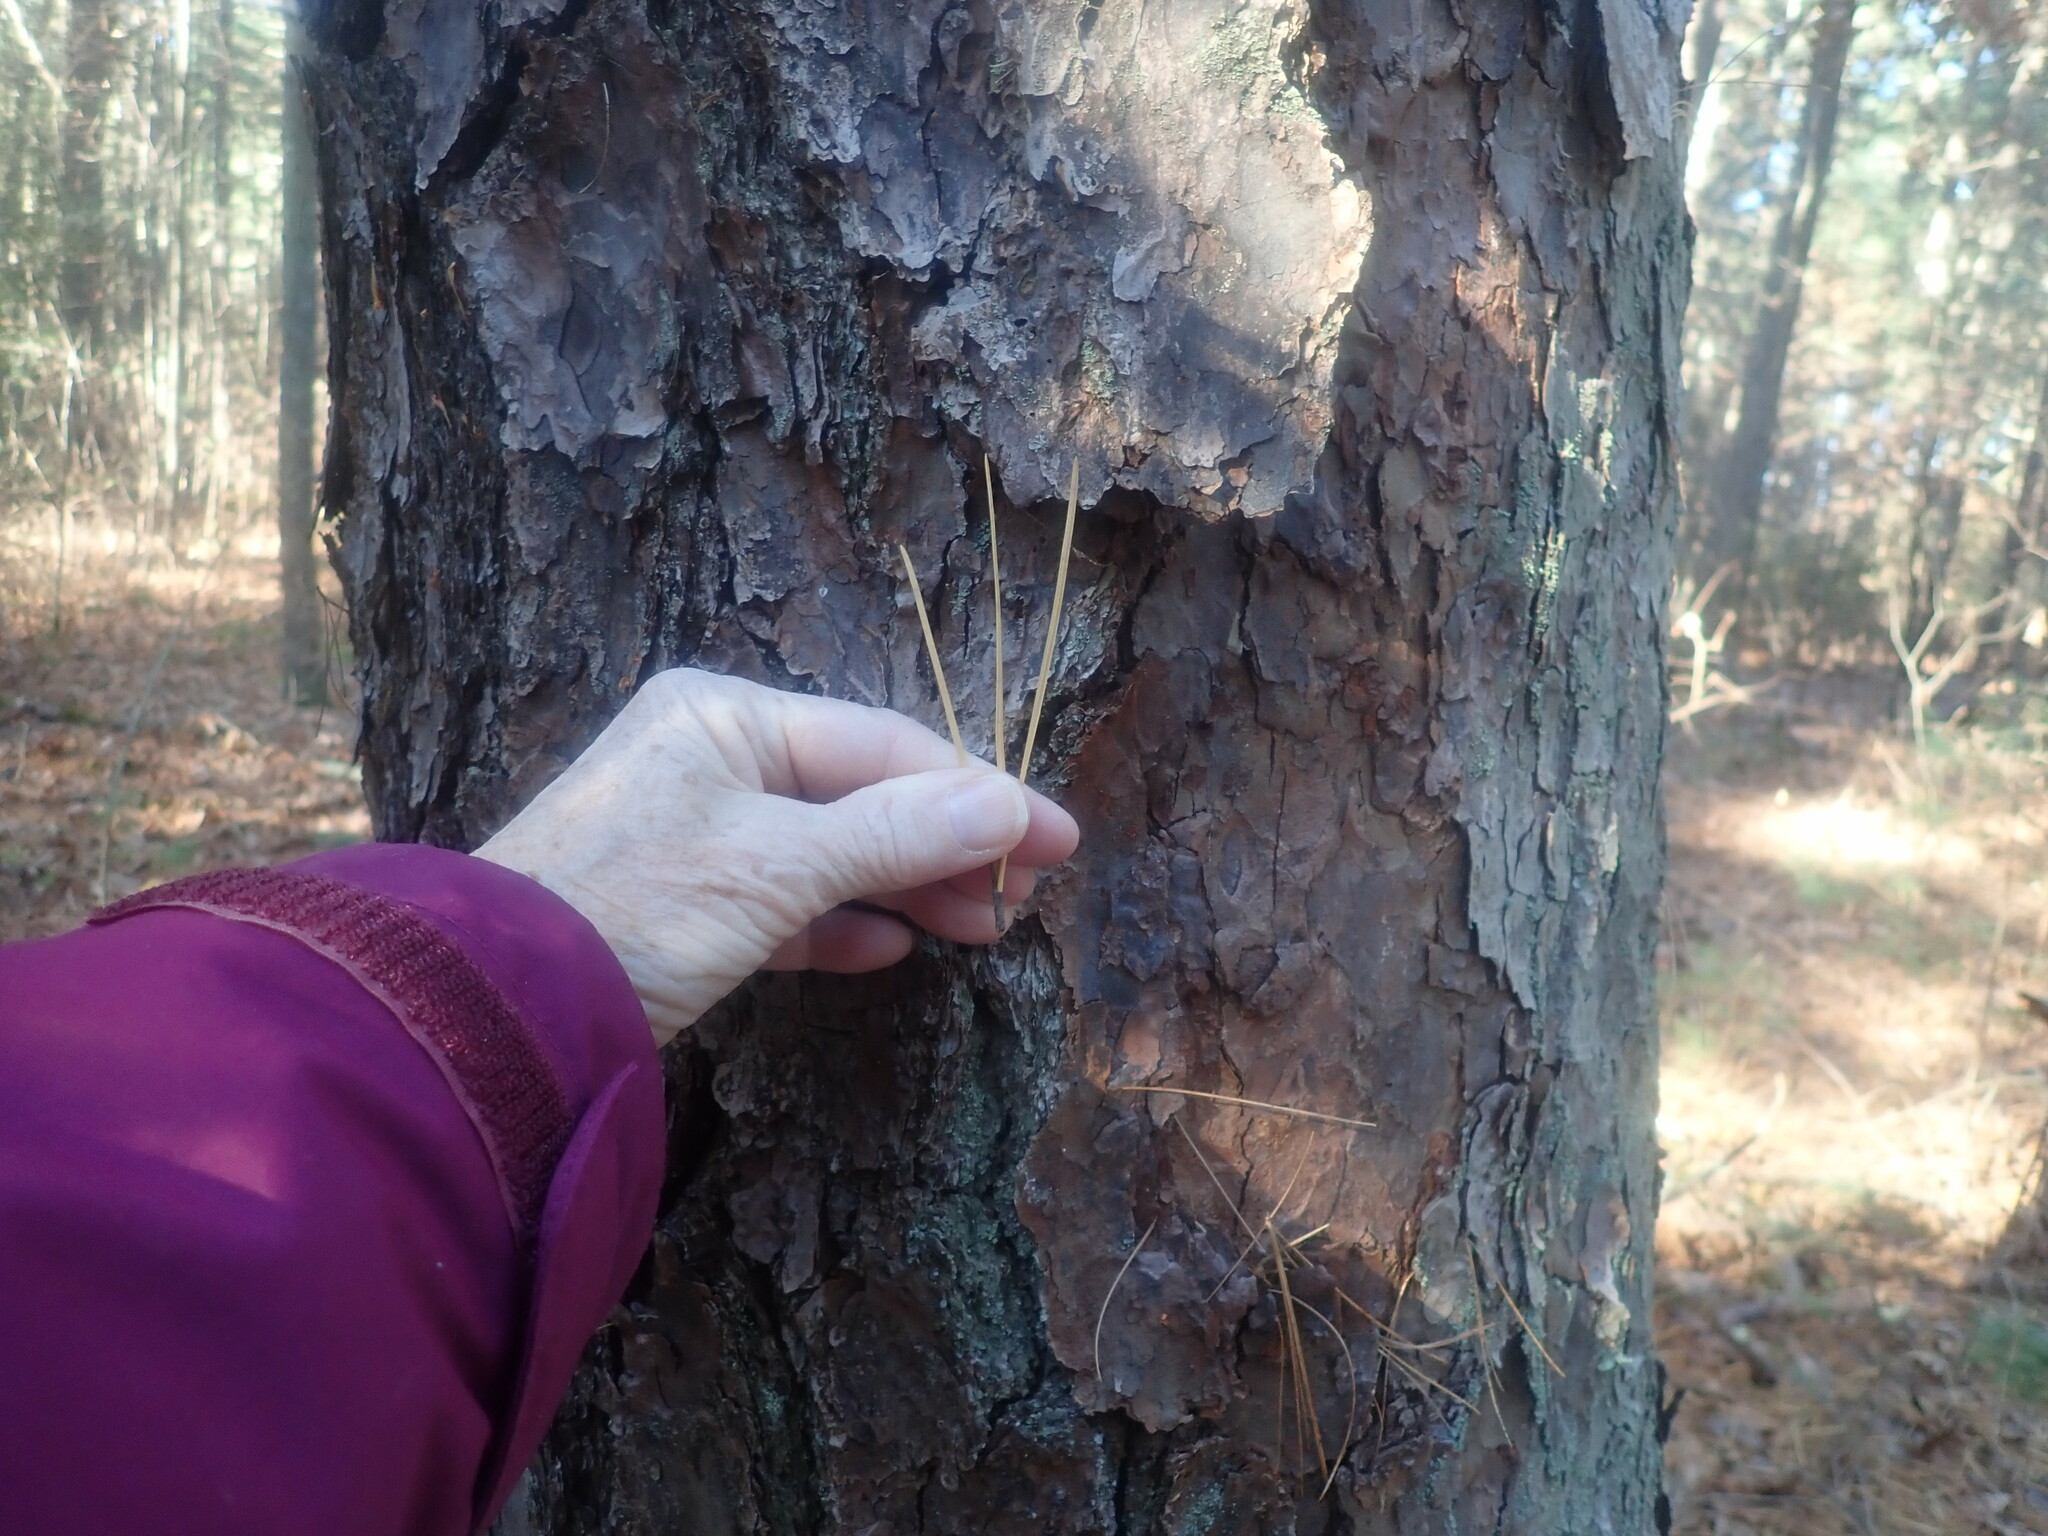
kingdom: Plantae
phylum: Tracheophyta
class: Pinopsida
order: Pinales
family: Pinaceae
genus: Pinus
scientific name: Pinus rigida
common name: Pitch pine
